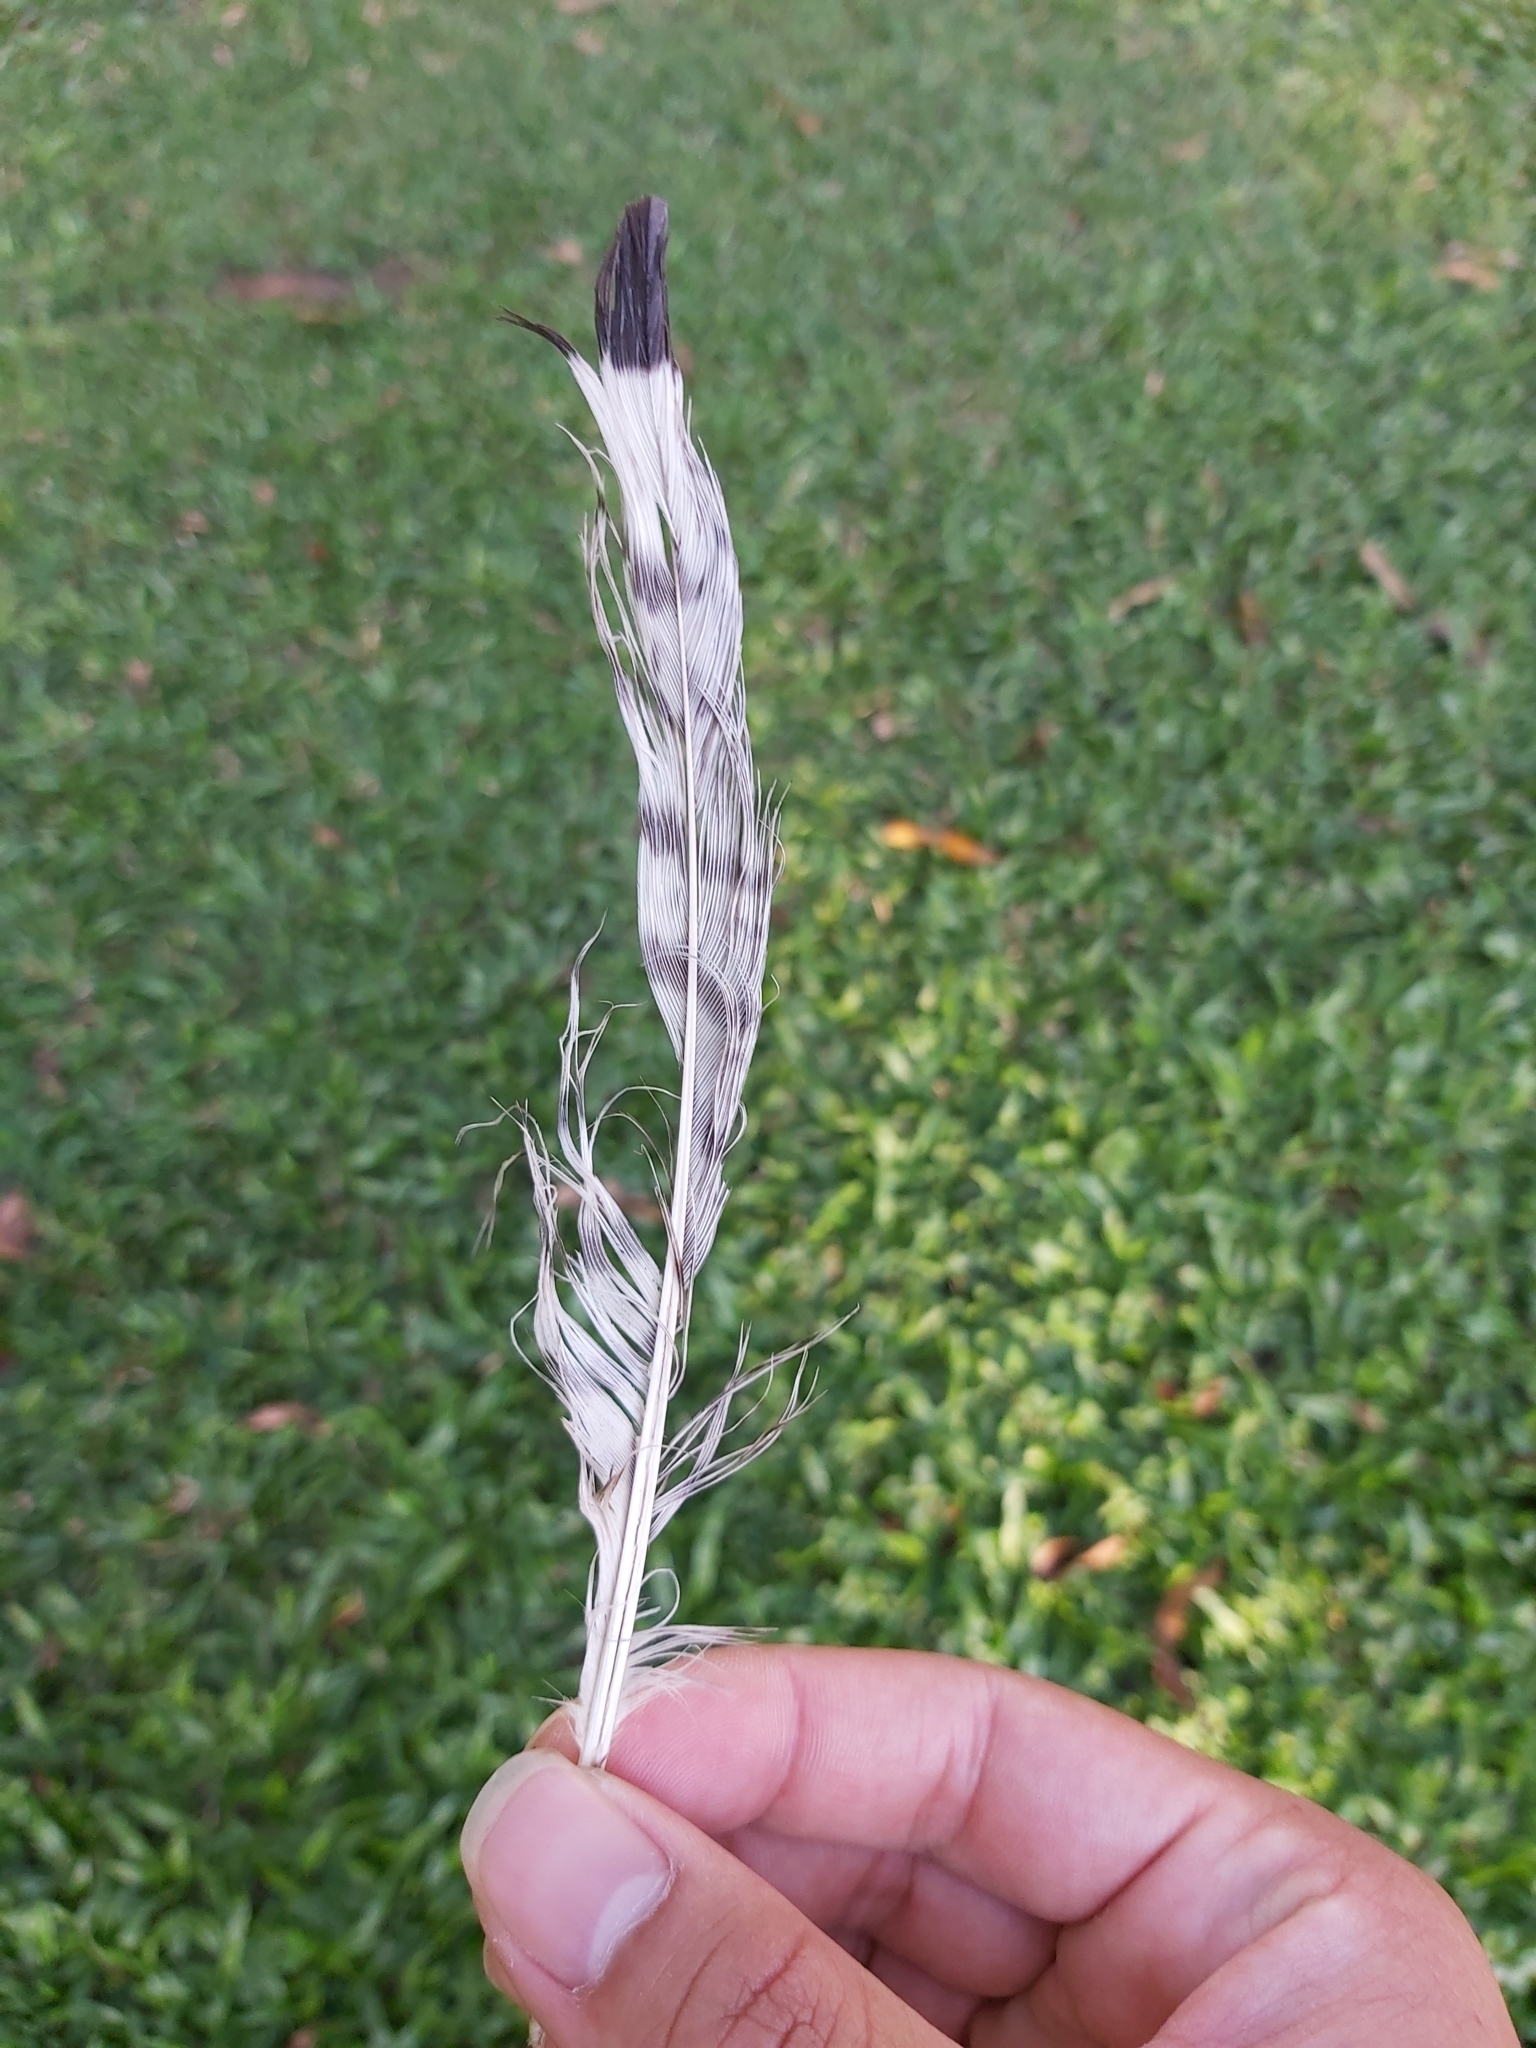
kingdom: Animalia
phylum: Chordata
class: Aves
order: Charadriiformes
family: Burhinidae
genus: Burhinus
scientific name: Burhinus grallarius
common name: Bush stone-curlew
